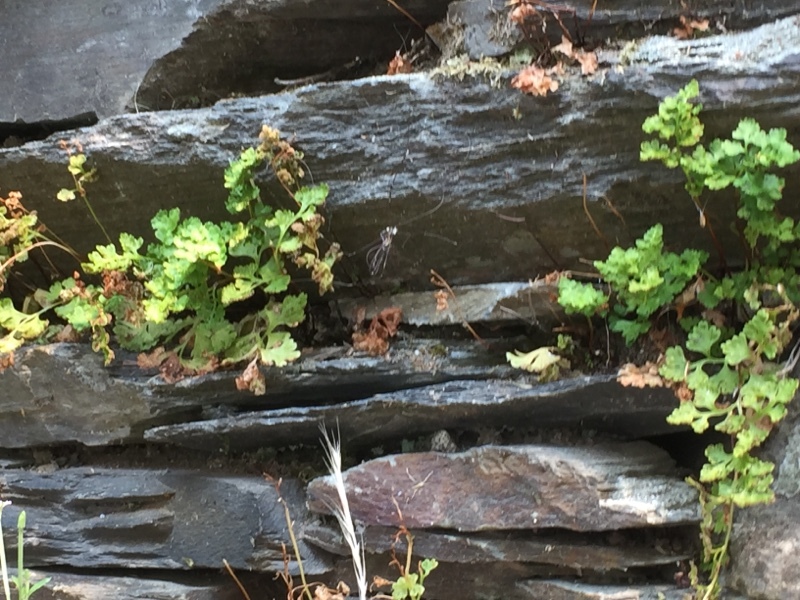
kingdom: Plantae
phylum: Tracheophyta
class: Polypodiopsida
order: Polypodiales
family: Pteridaceae
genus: Anogramma
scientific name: Anogramma leptophylla
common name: Jersey fern
